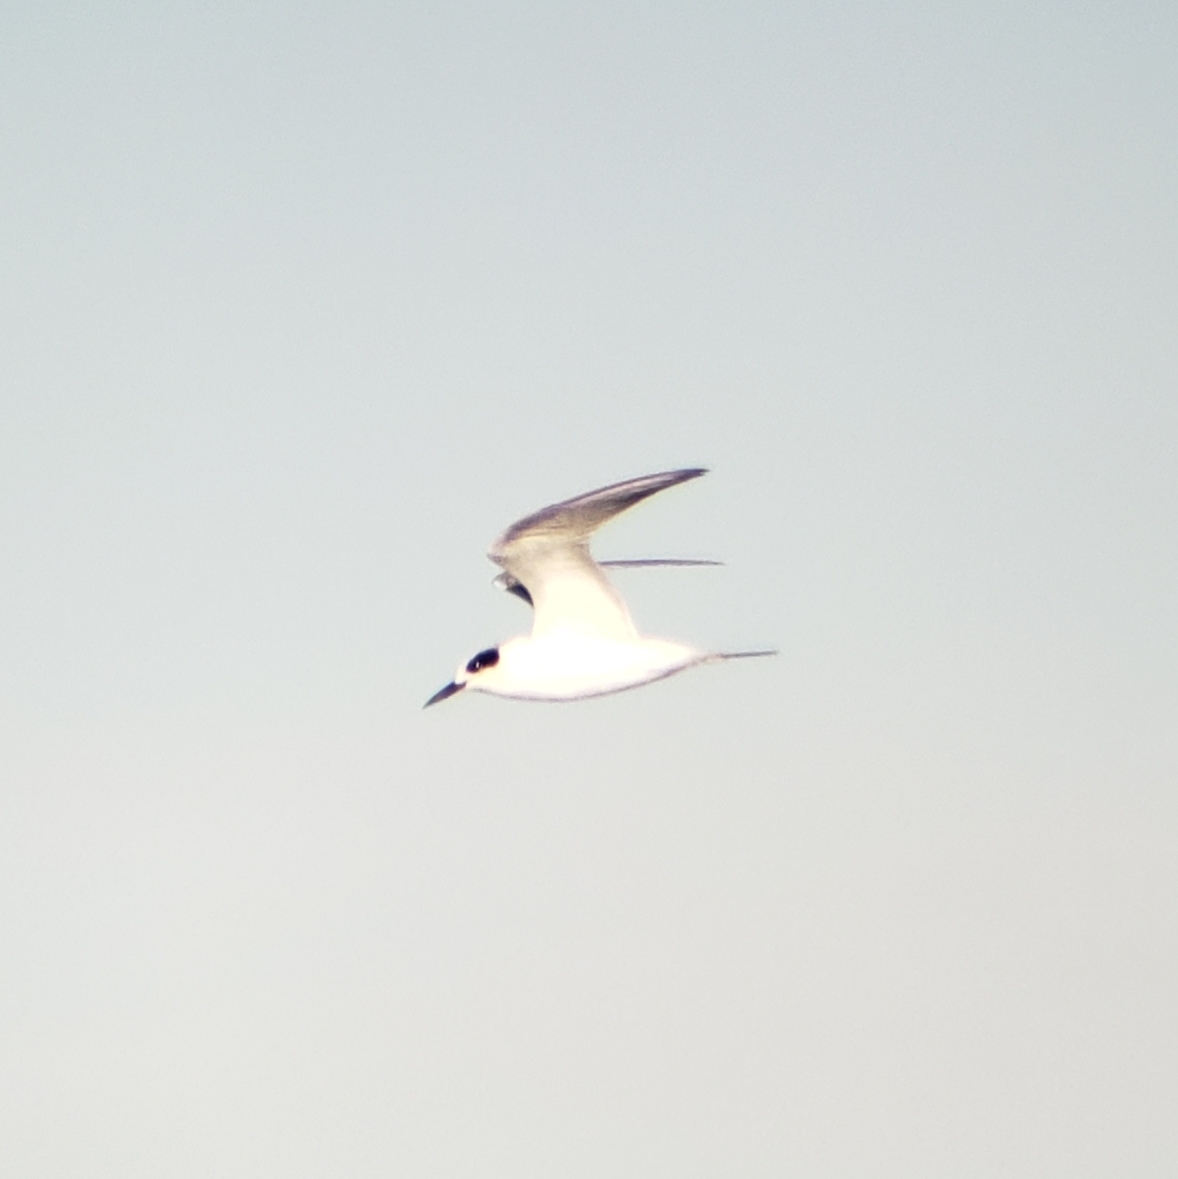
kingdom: Animalia
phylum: Chordata
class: Aves
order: Charadriiformes
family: Laridae
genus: Sterna
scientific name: Sterna forsteri
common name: Forster's tern
